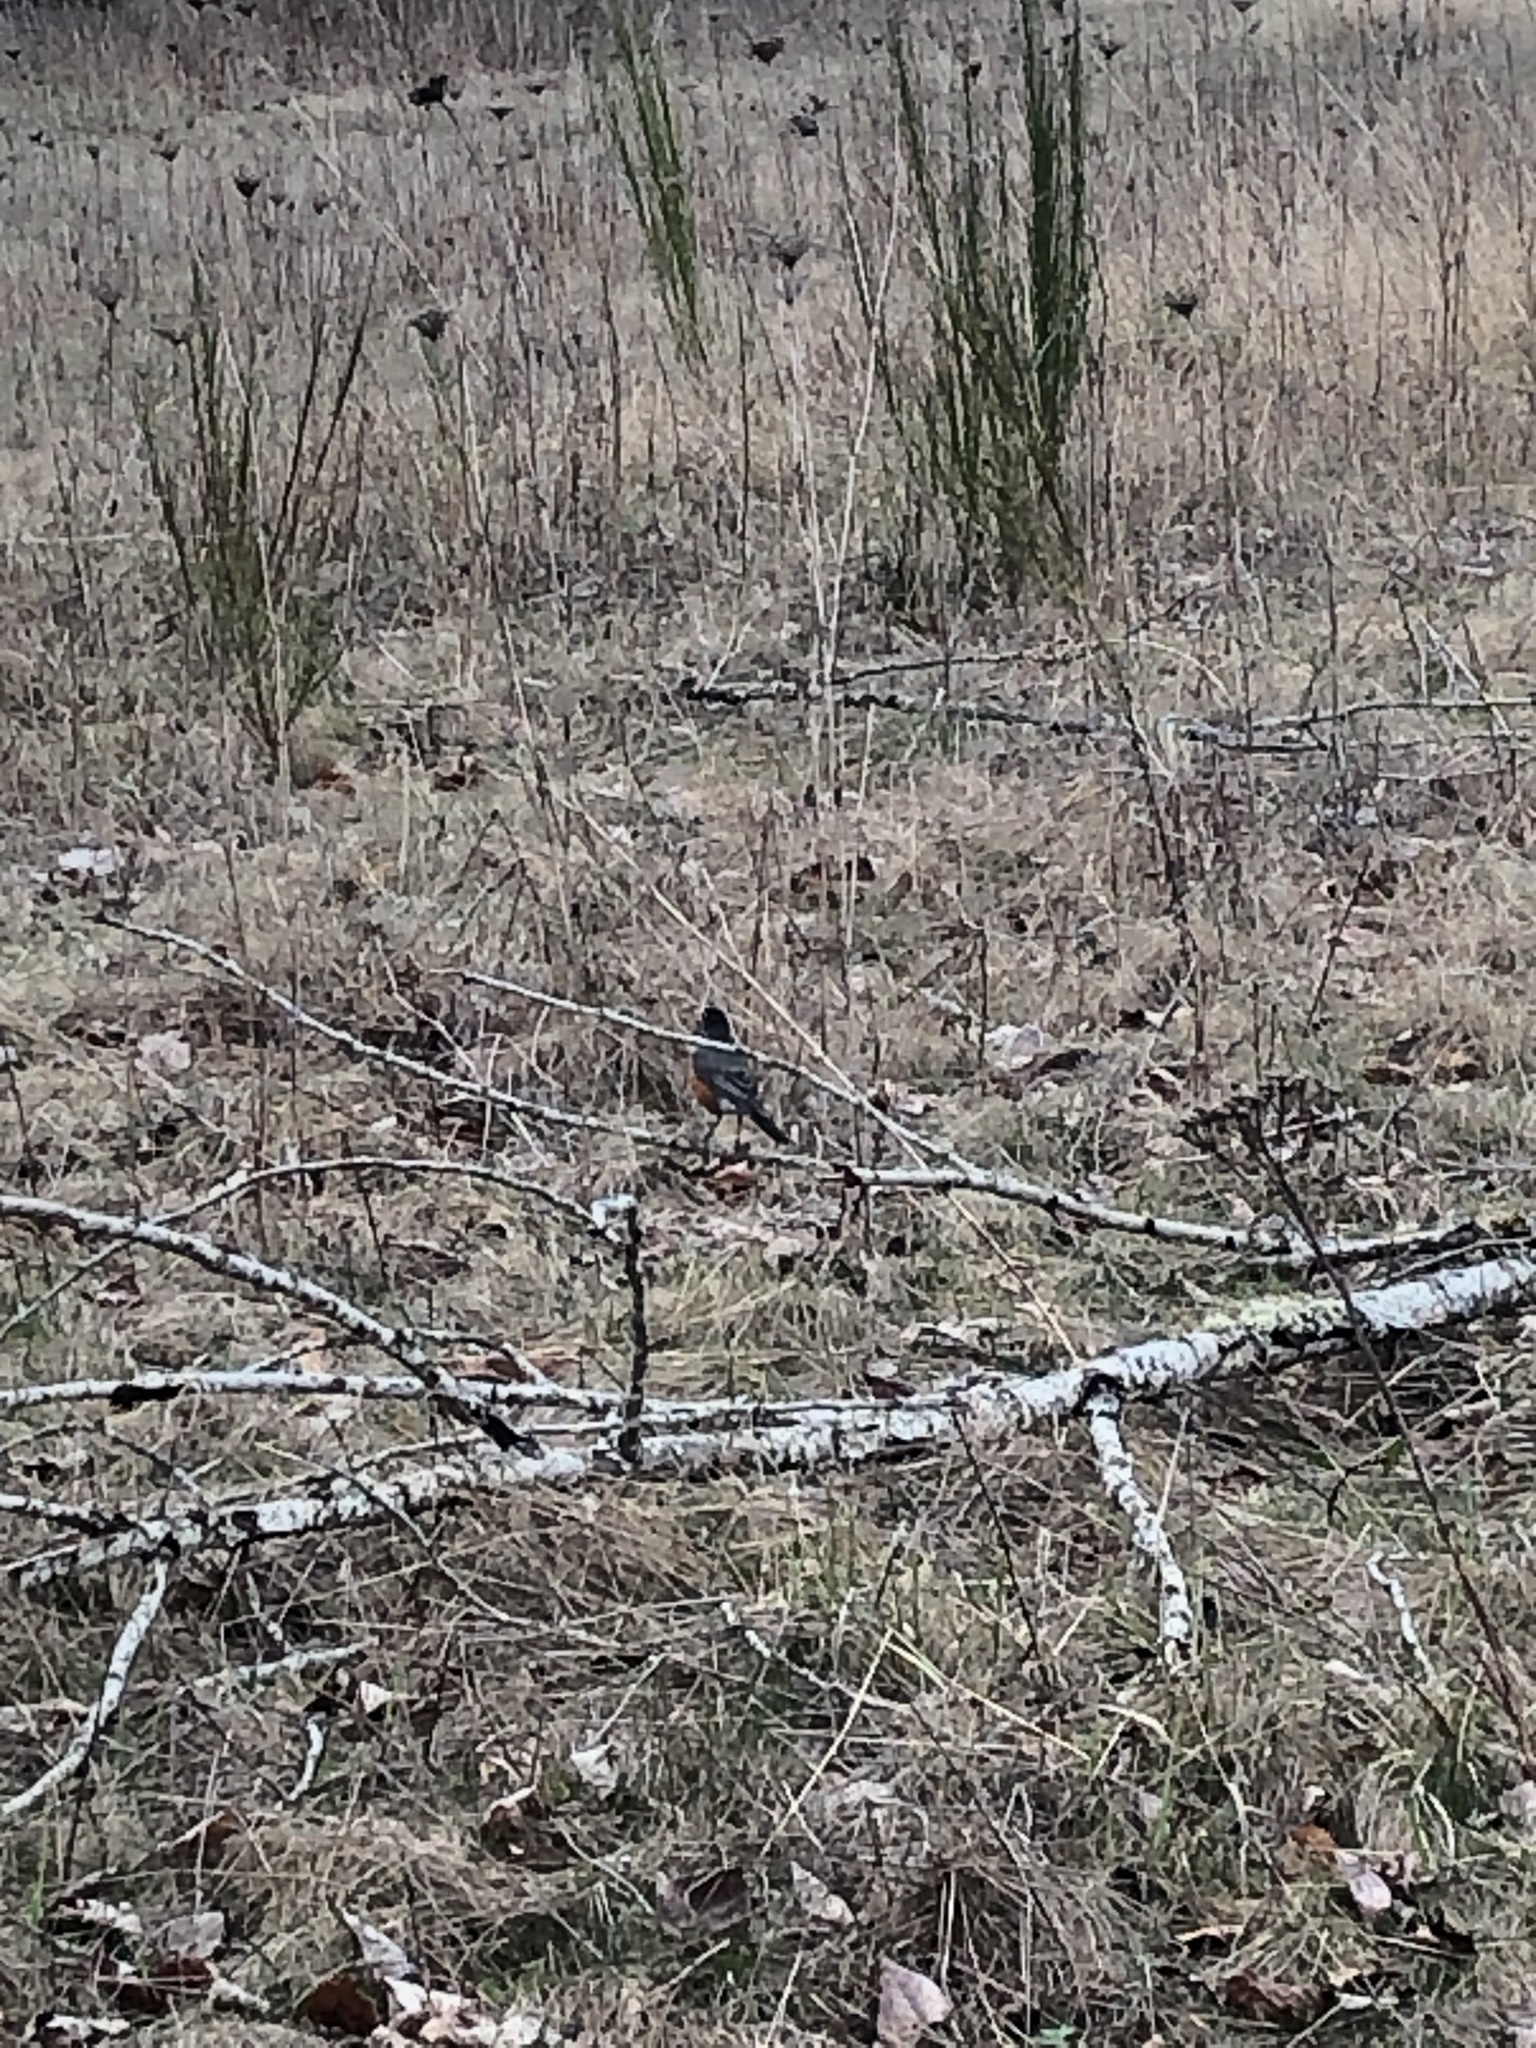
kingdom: Animalia
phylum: Chordata
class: Aves
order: Passeriformes
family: Turdidae
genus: Turdus
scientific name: Turdus migratorius
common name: American robin
